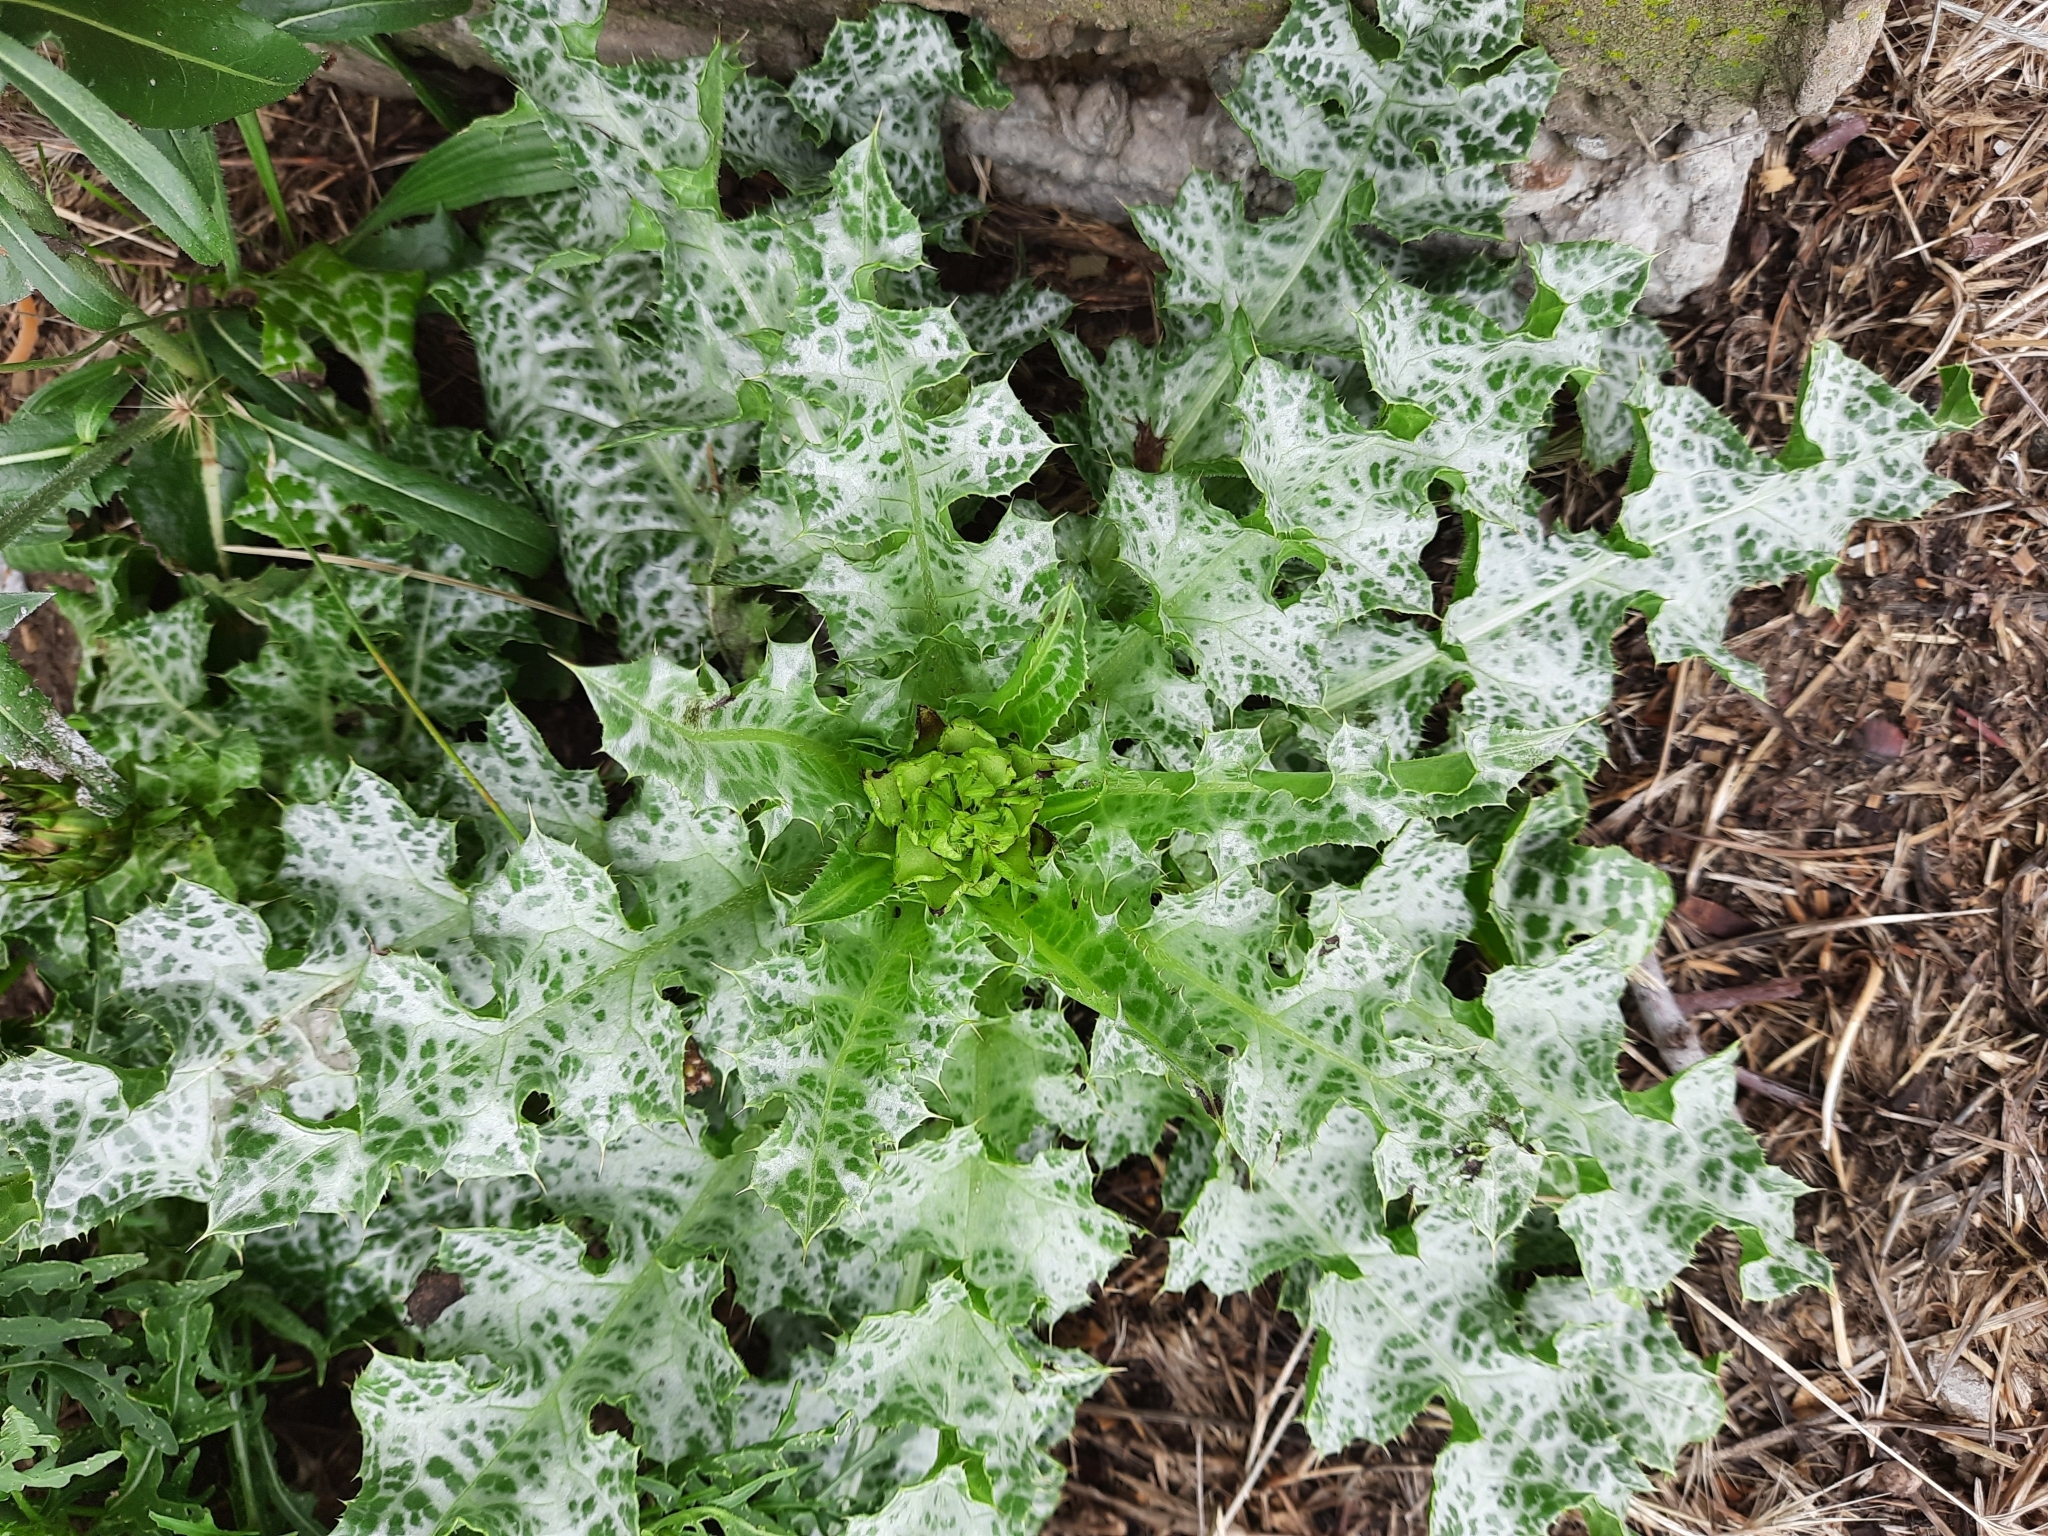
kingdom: Plantae
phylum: Tracheophyta
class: Magnoliopsida
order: Asterales
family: Asteraceae
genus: Silybum
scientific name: Silybum marianum
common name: Milk thistle
